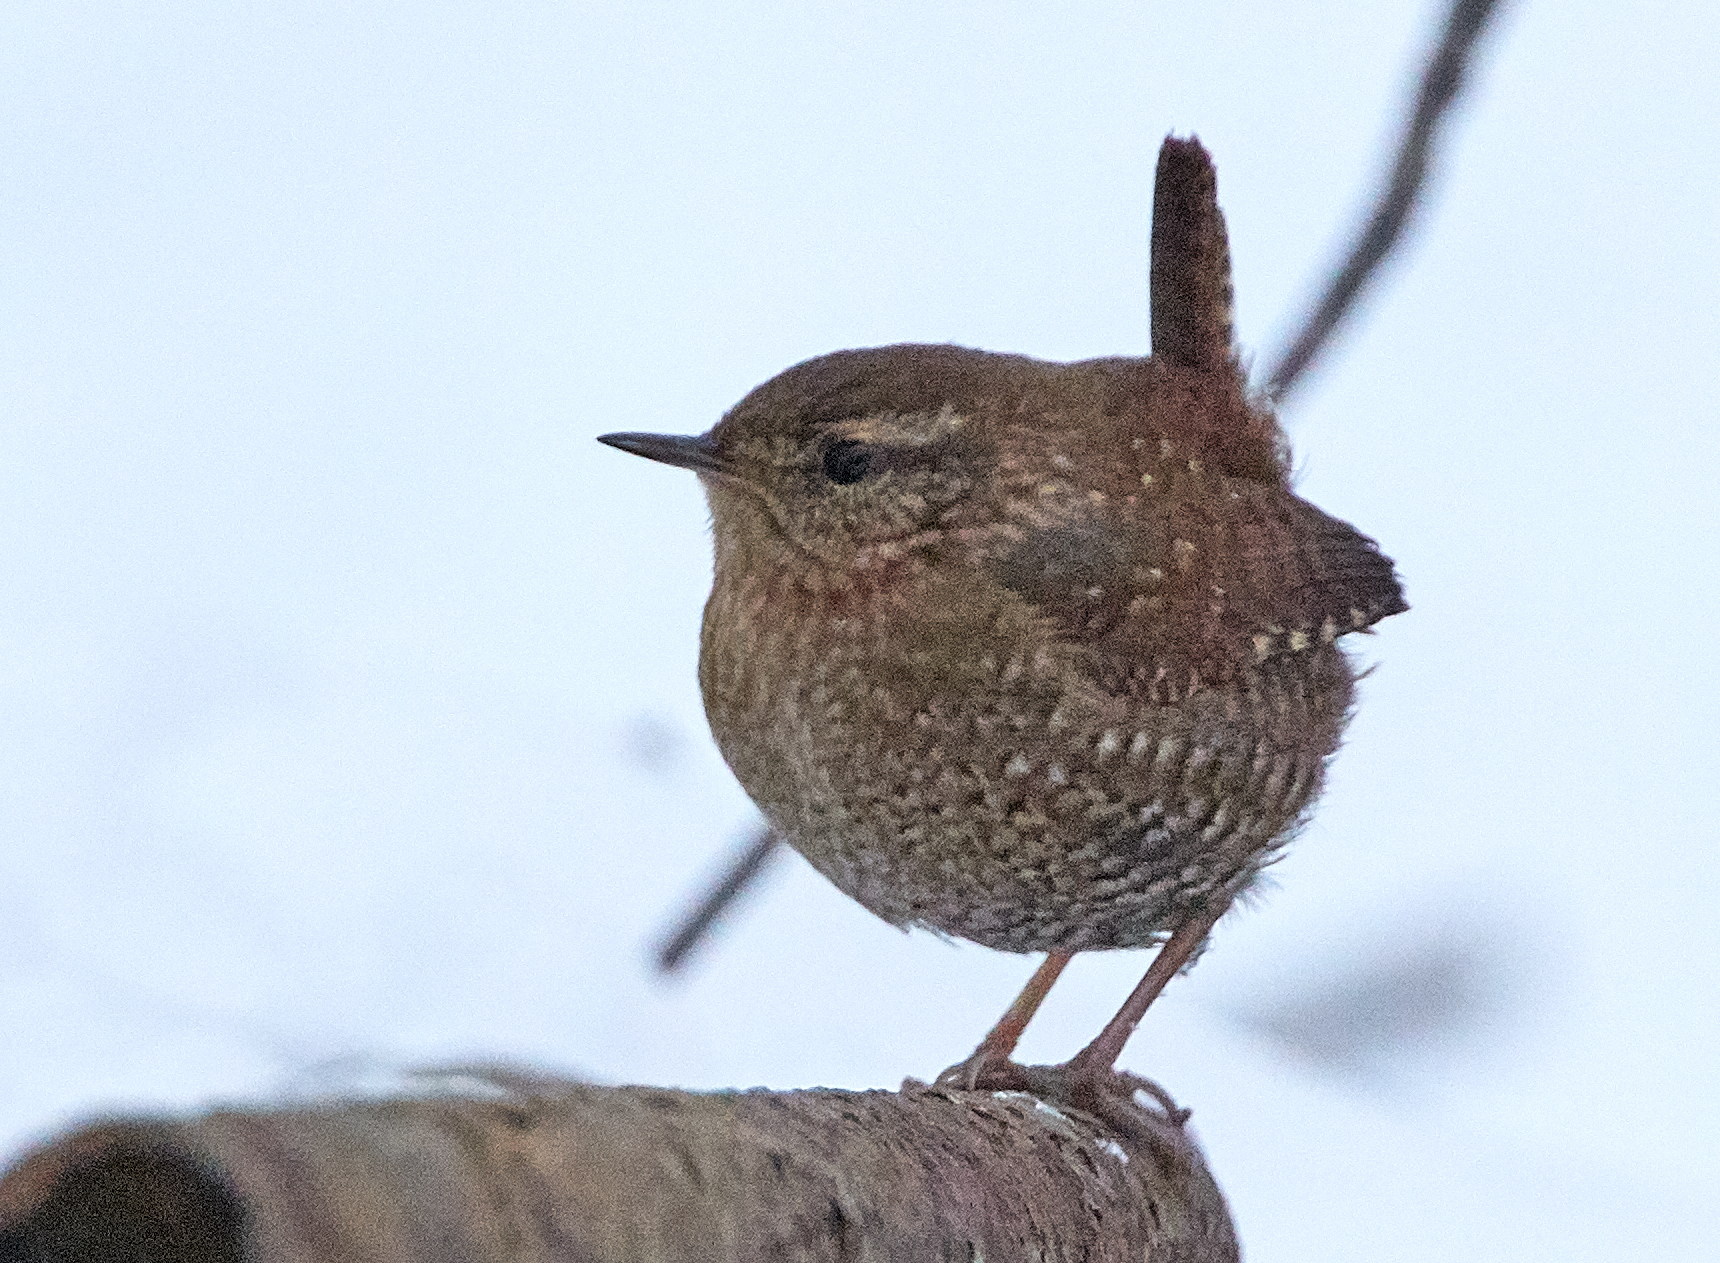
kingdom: Animalia
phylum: Chordata
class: Aves
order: Passeriformes
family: Troglodytidae
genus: Troglodytes
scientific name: Troglodytes hiemalis
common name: Winter wren
